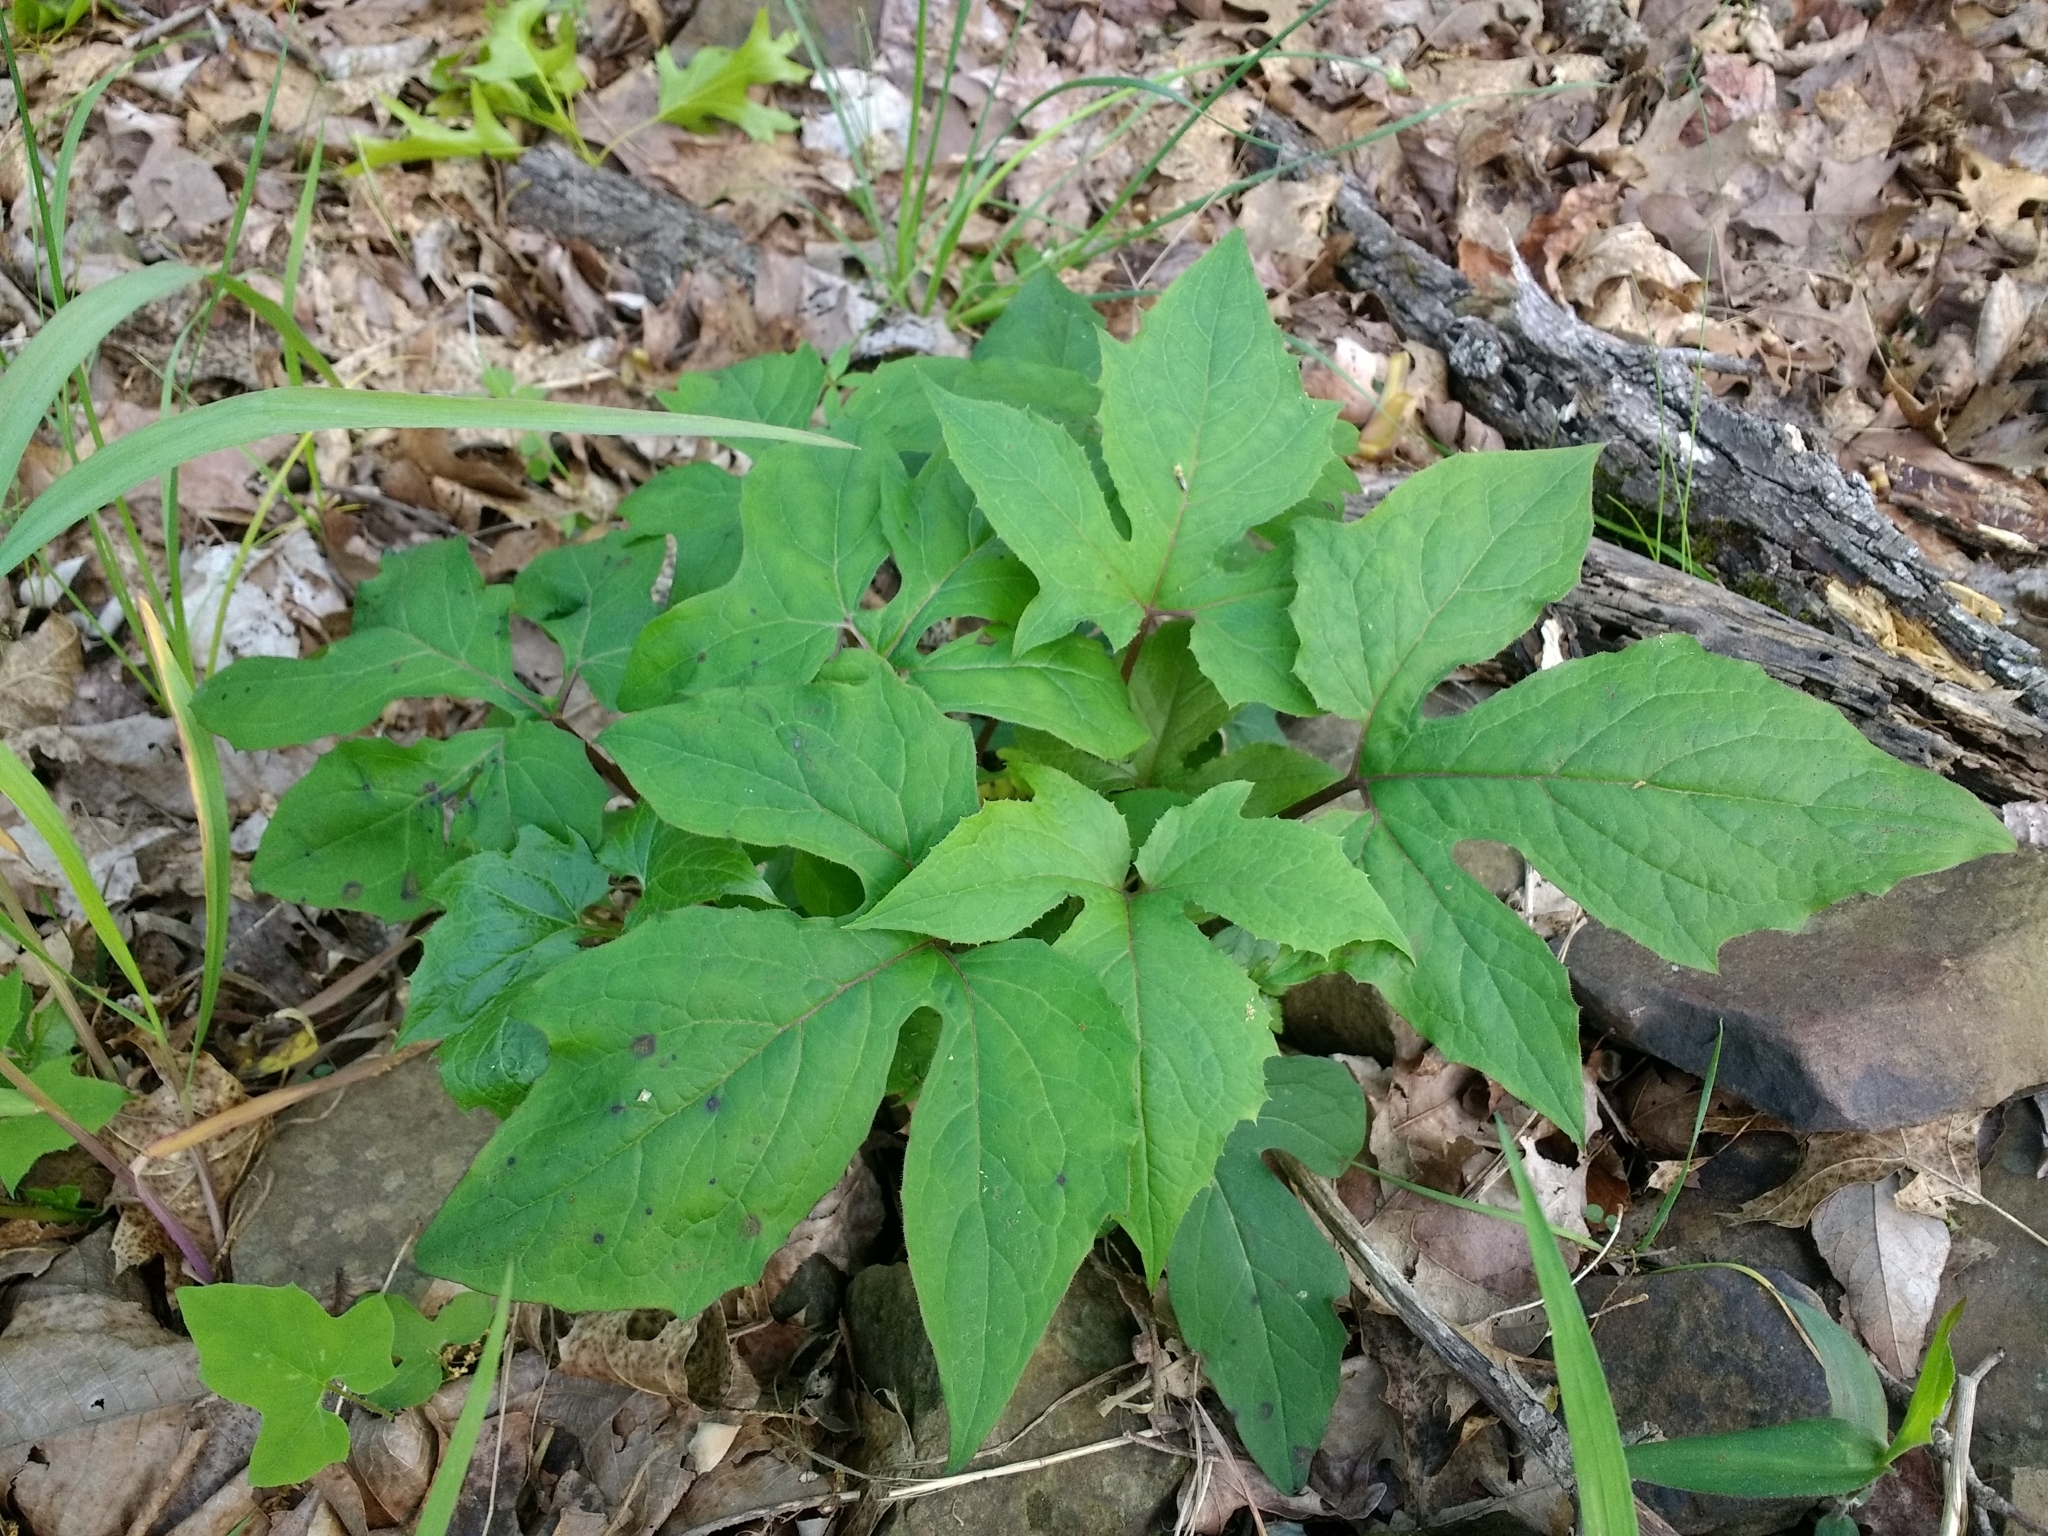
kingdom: Plantae
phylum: Tracheophyta
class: Magnoliopsida
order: Asterales
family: Asteraceae
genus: Nabalus
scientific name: Nabalus altissima
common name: Tall rattlesnakeroot
